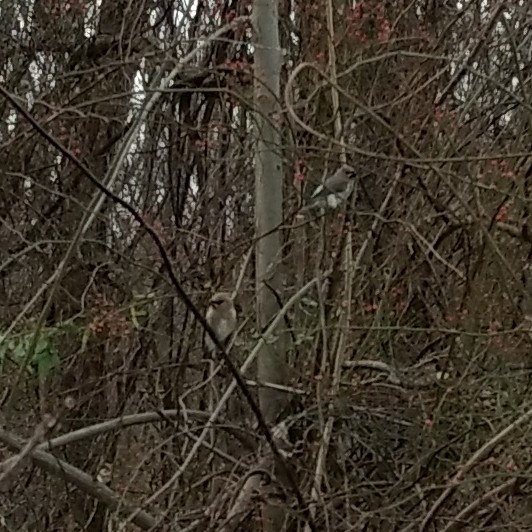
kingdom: Animalia
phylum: Chordata
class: Aves
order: Passeriformes
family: Bombycillidae
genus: Bombycilla
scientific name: Bombycilla cedrorum
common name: Cedar waxwing
